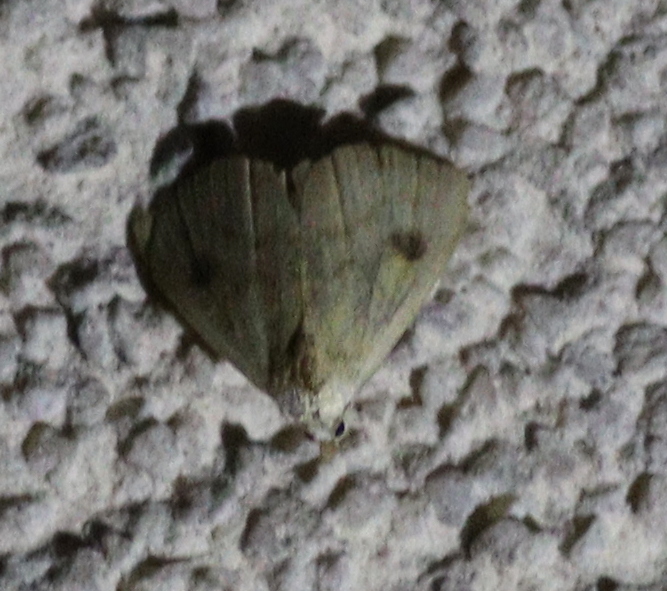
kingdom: Animalia
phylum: Arthropoda
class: Insecta
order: Lepidoptera
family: Erebidae
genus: Rivula
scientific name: Rivula sericealis
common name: Straw dot
